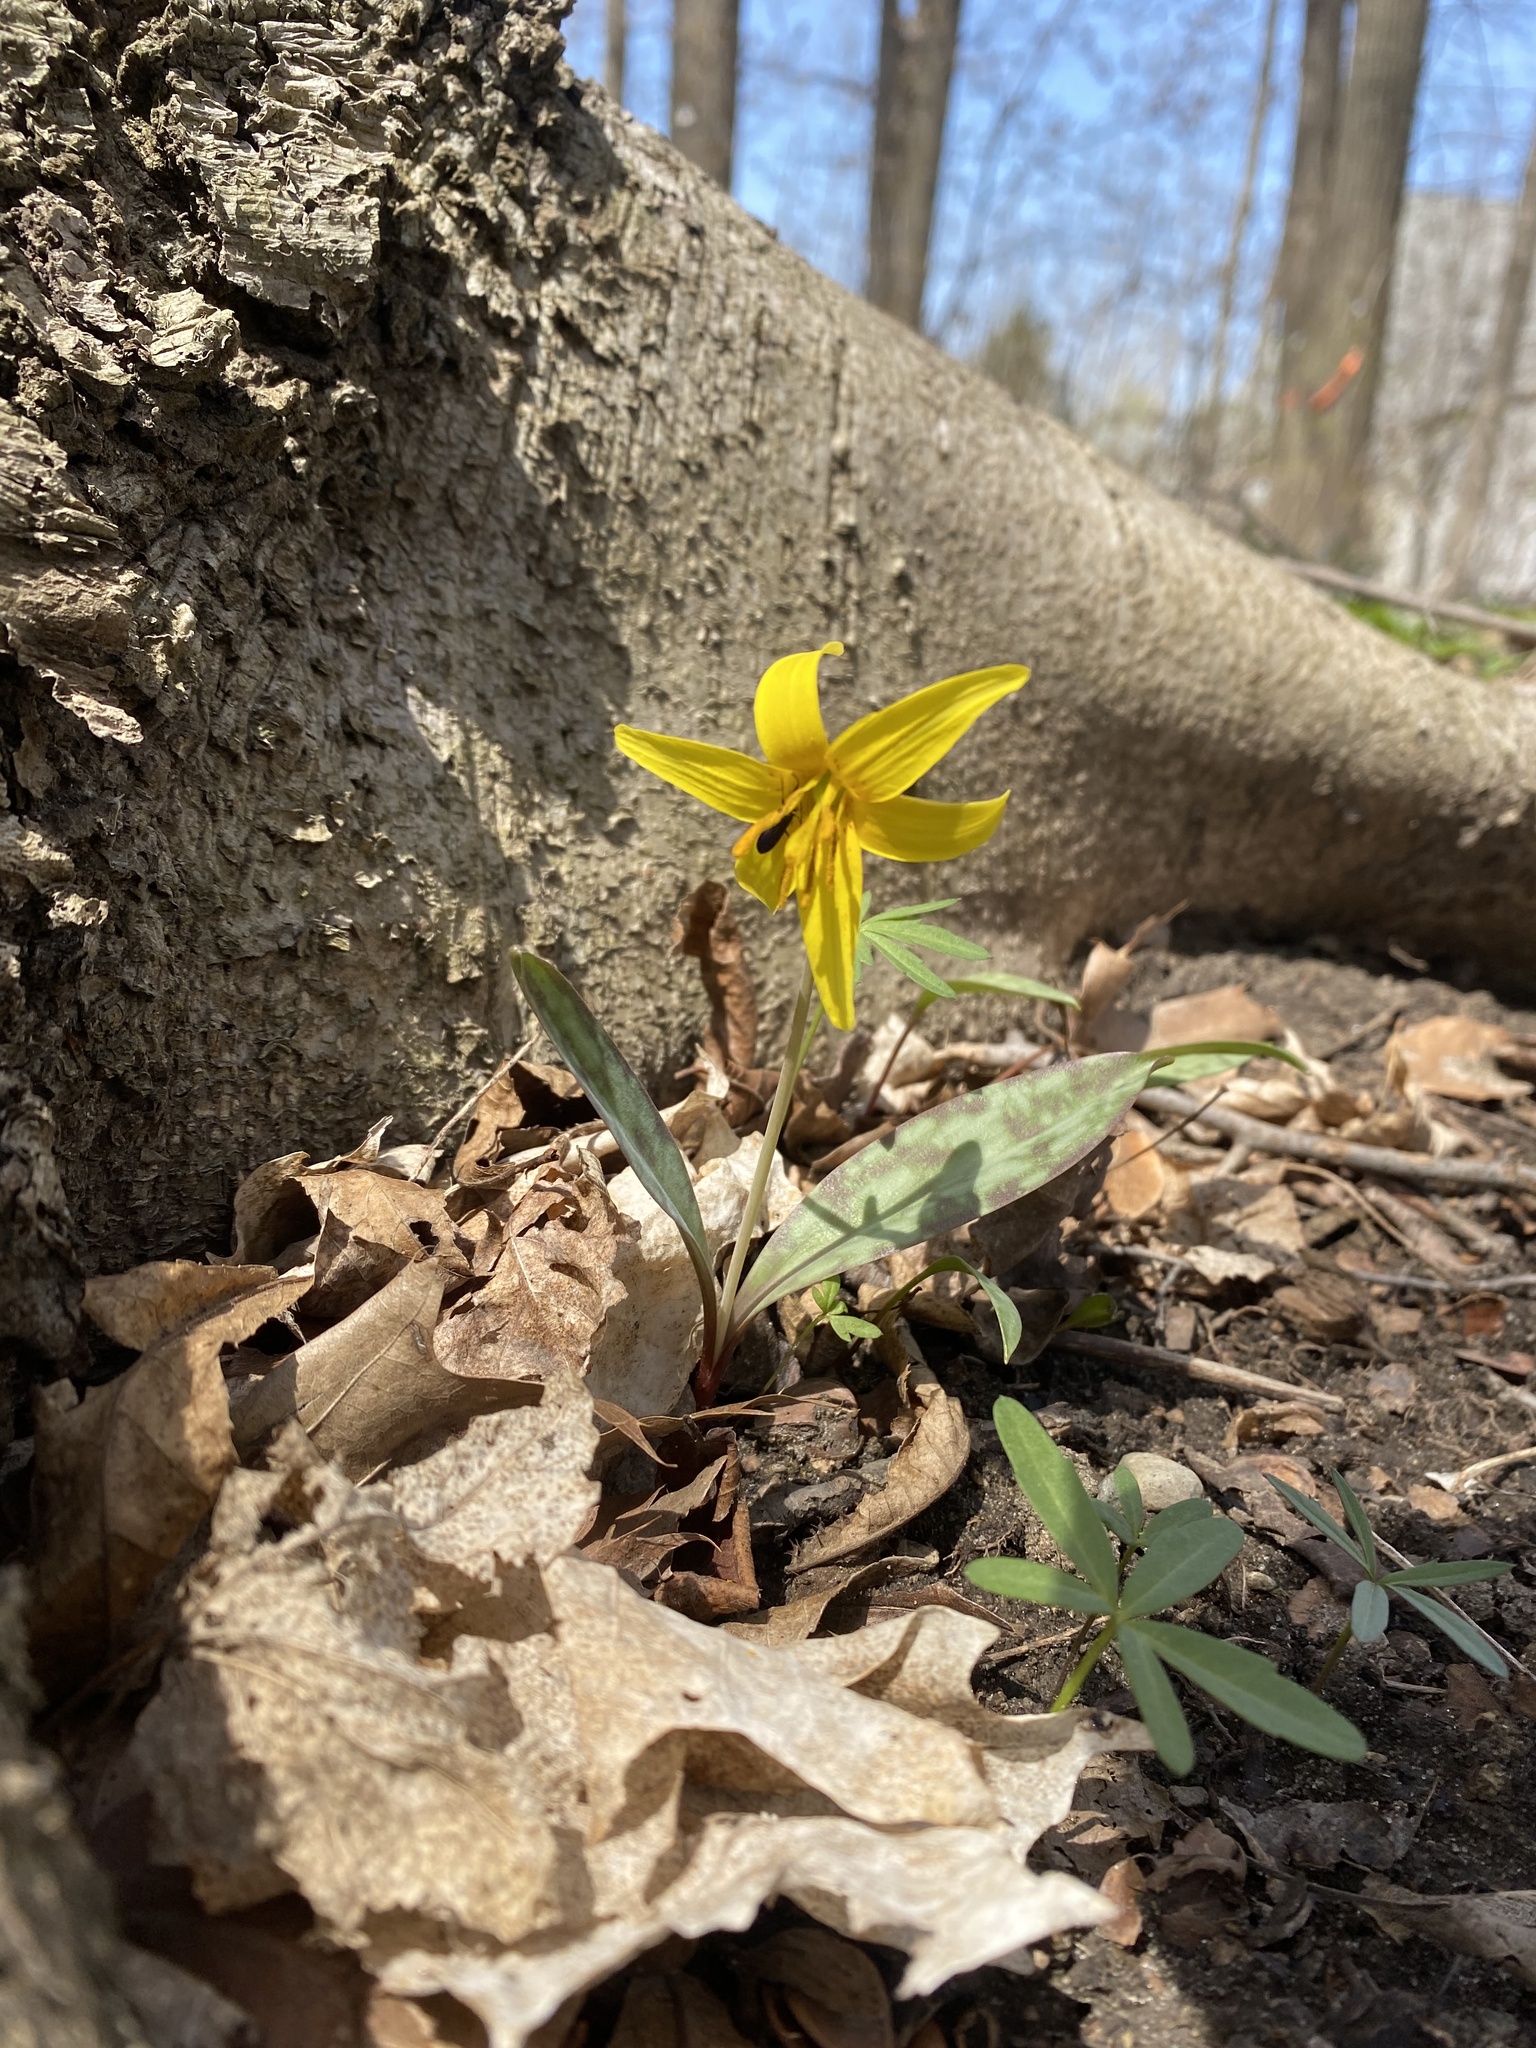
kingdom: Plantae
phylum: Tracheophyta
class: Liliopsida
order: Liliales
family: Liliaceae
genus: Erythronium
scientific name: Erythronium americanum
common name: Yellow adder's-tongue
